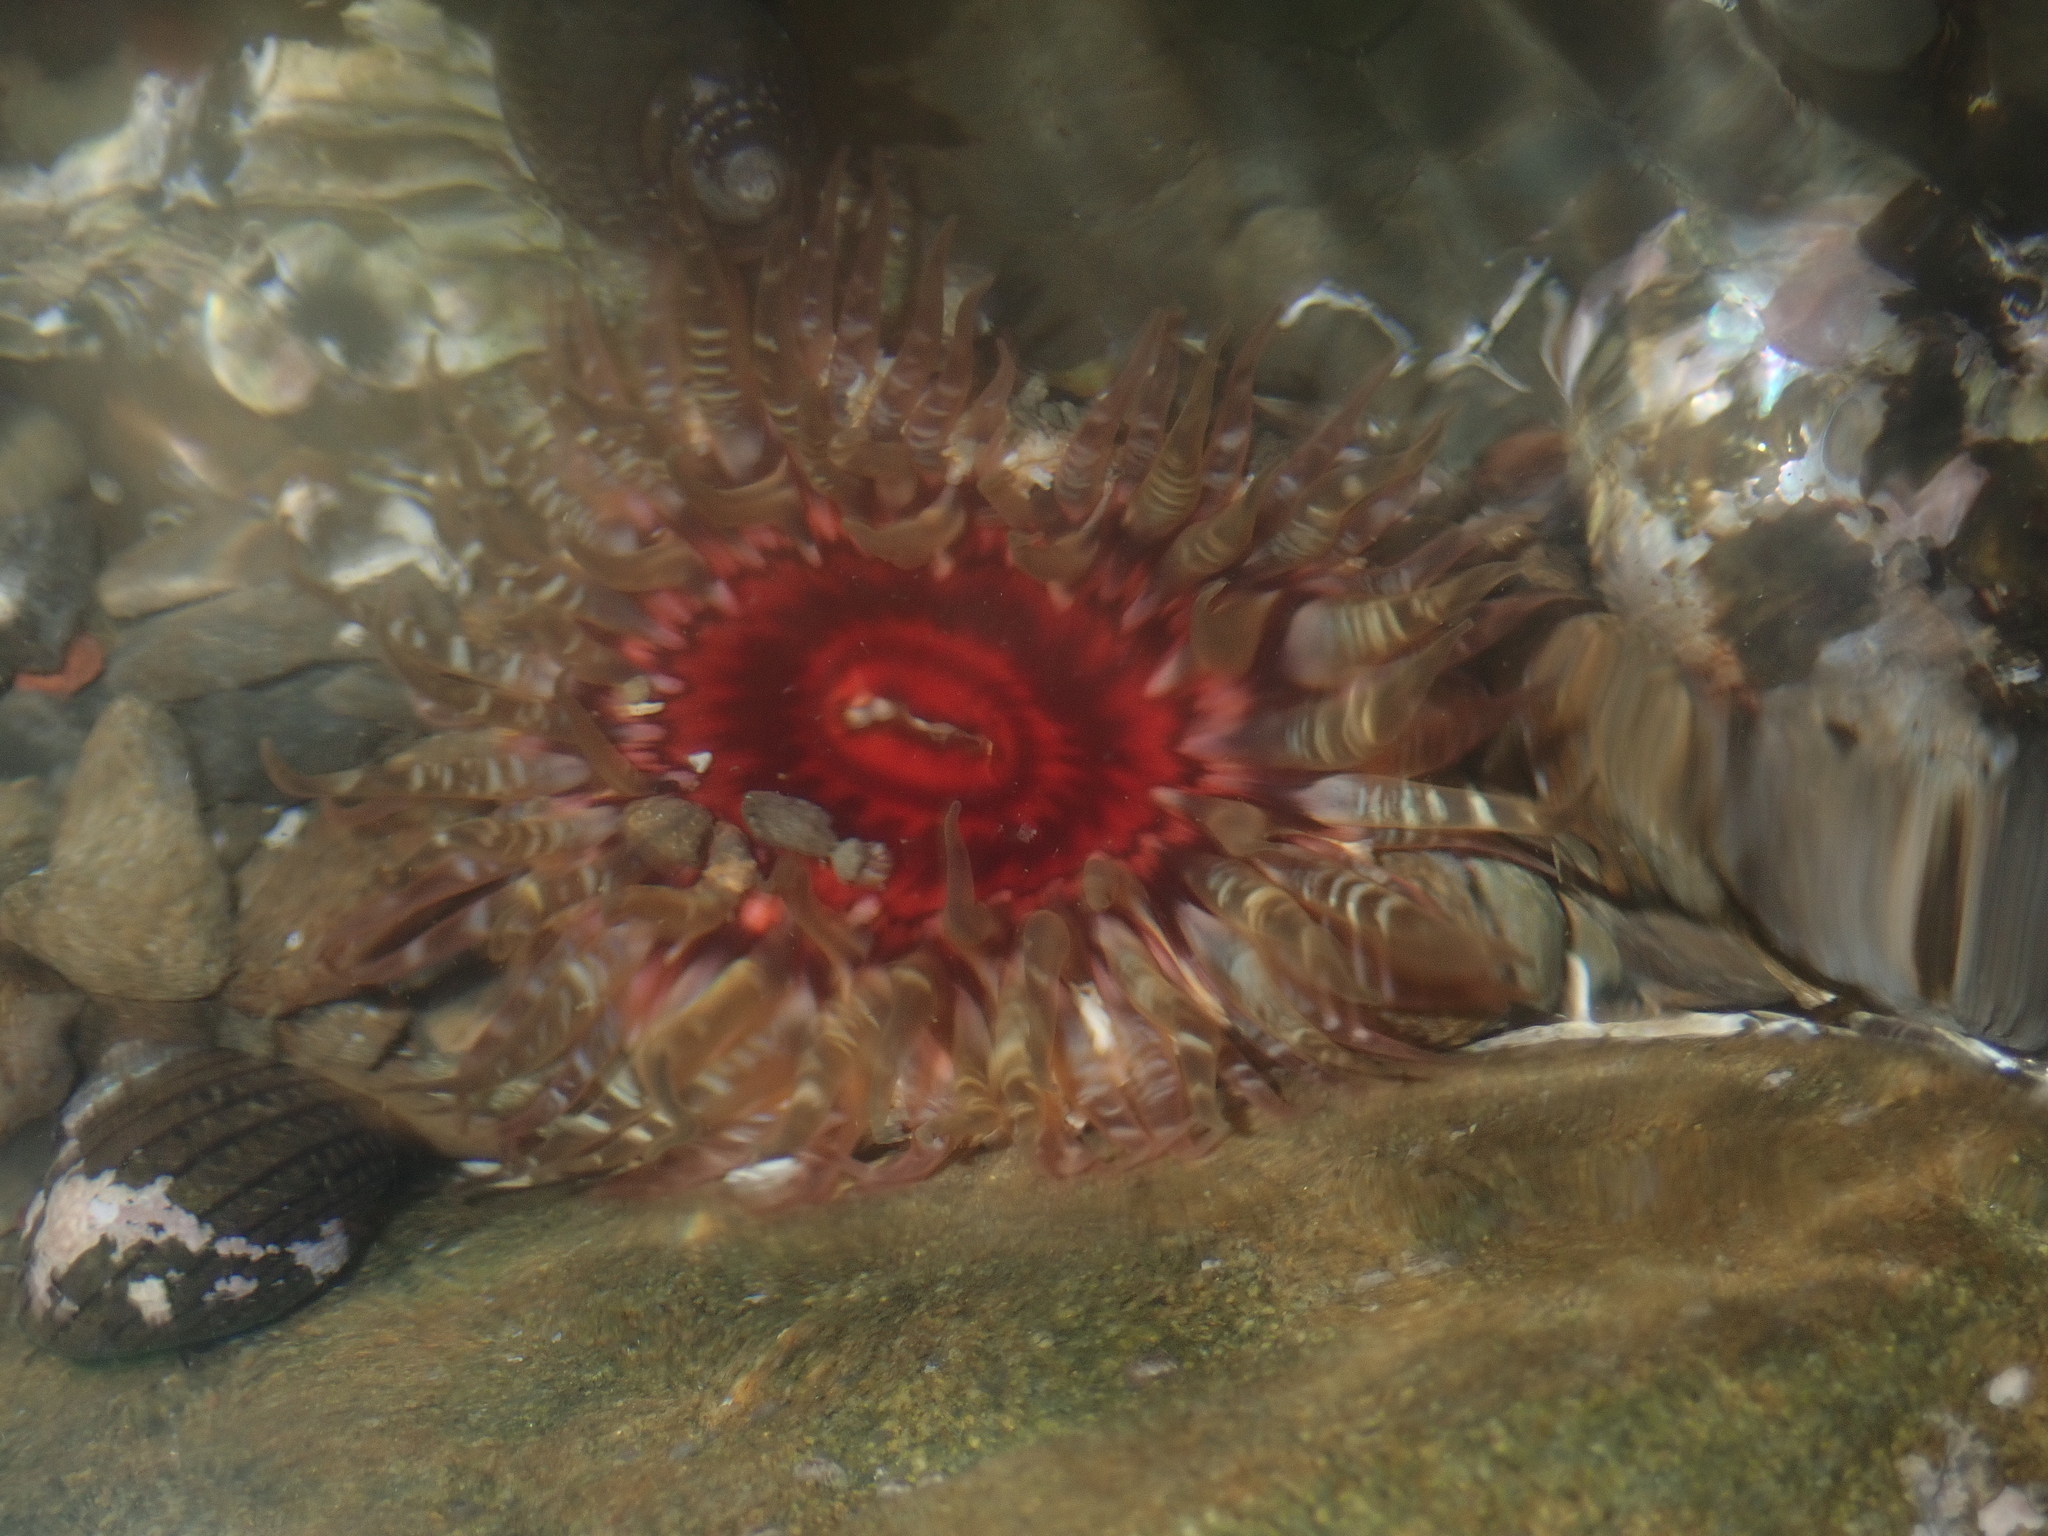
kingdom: Animalia
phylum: Cnidaria
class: Anthozoa
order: Actiniaria
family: Actiniidae
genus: Oulactis
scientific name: Oulactis muscosa
